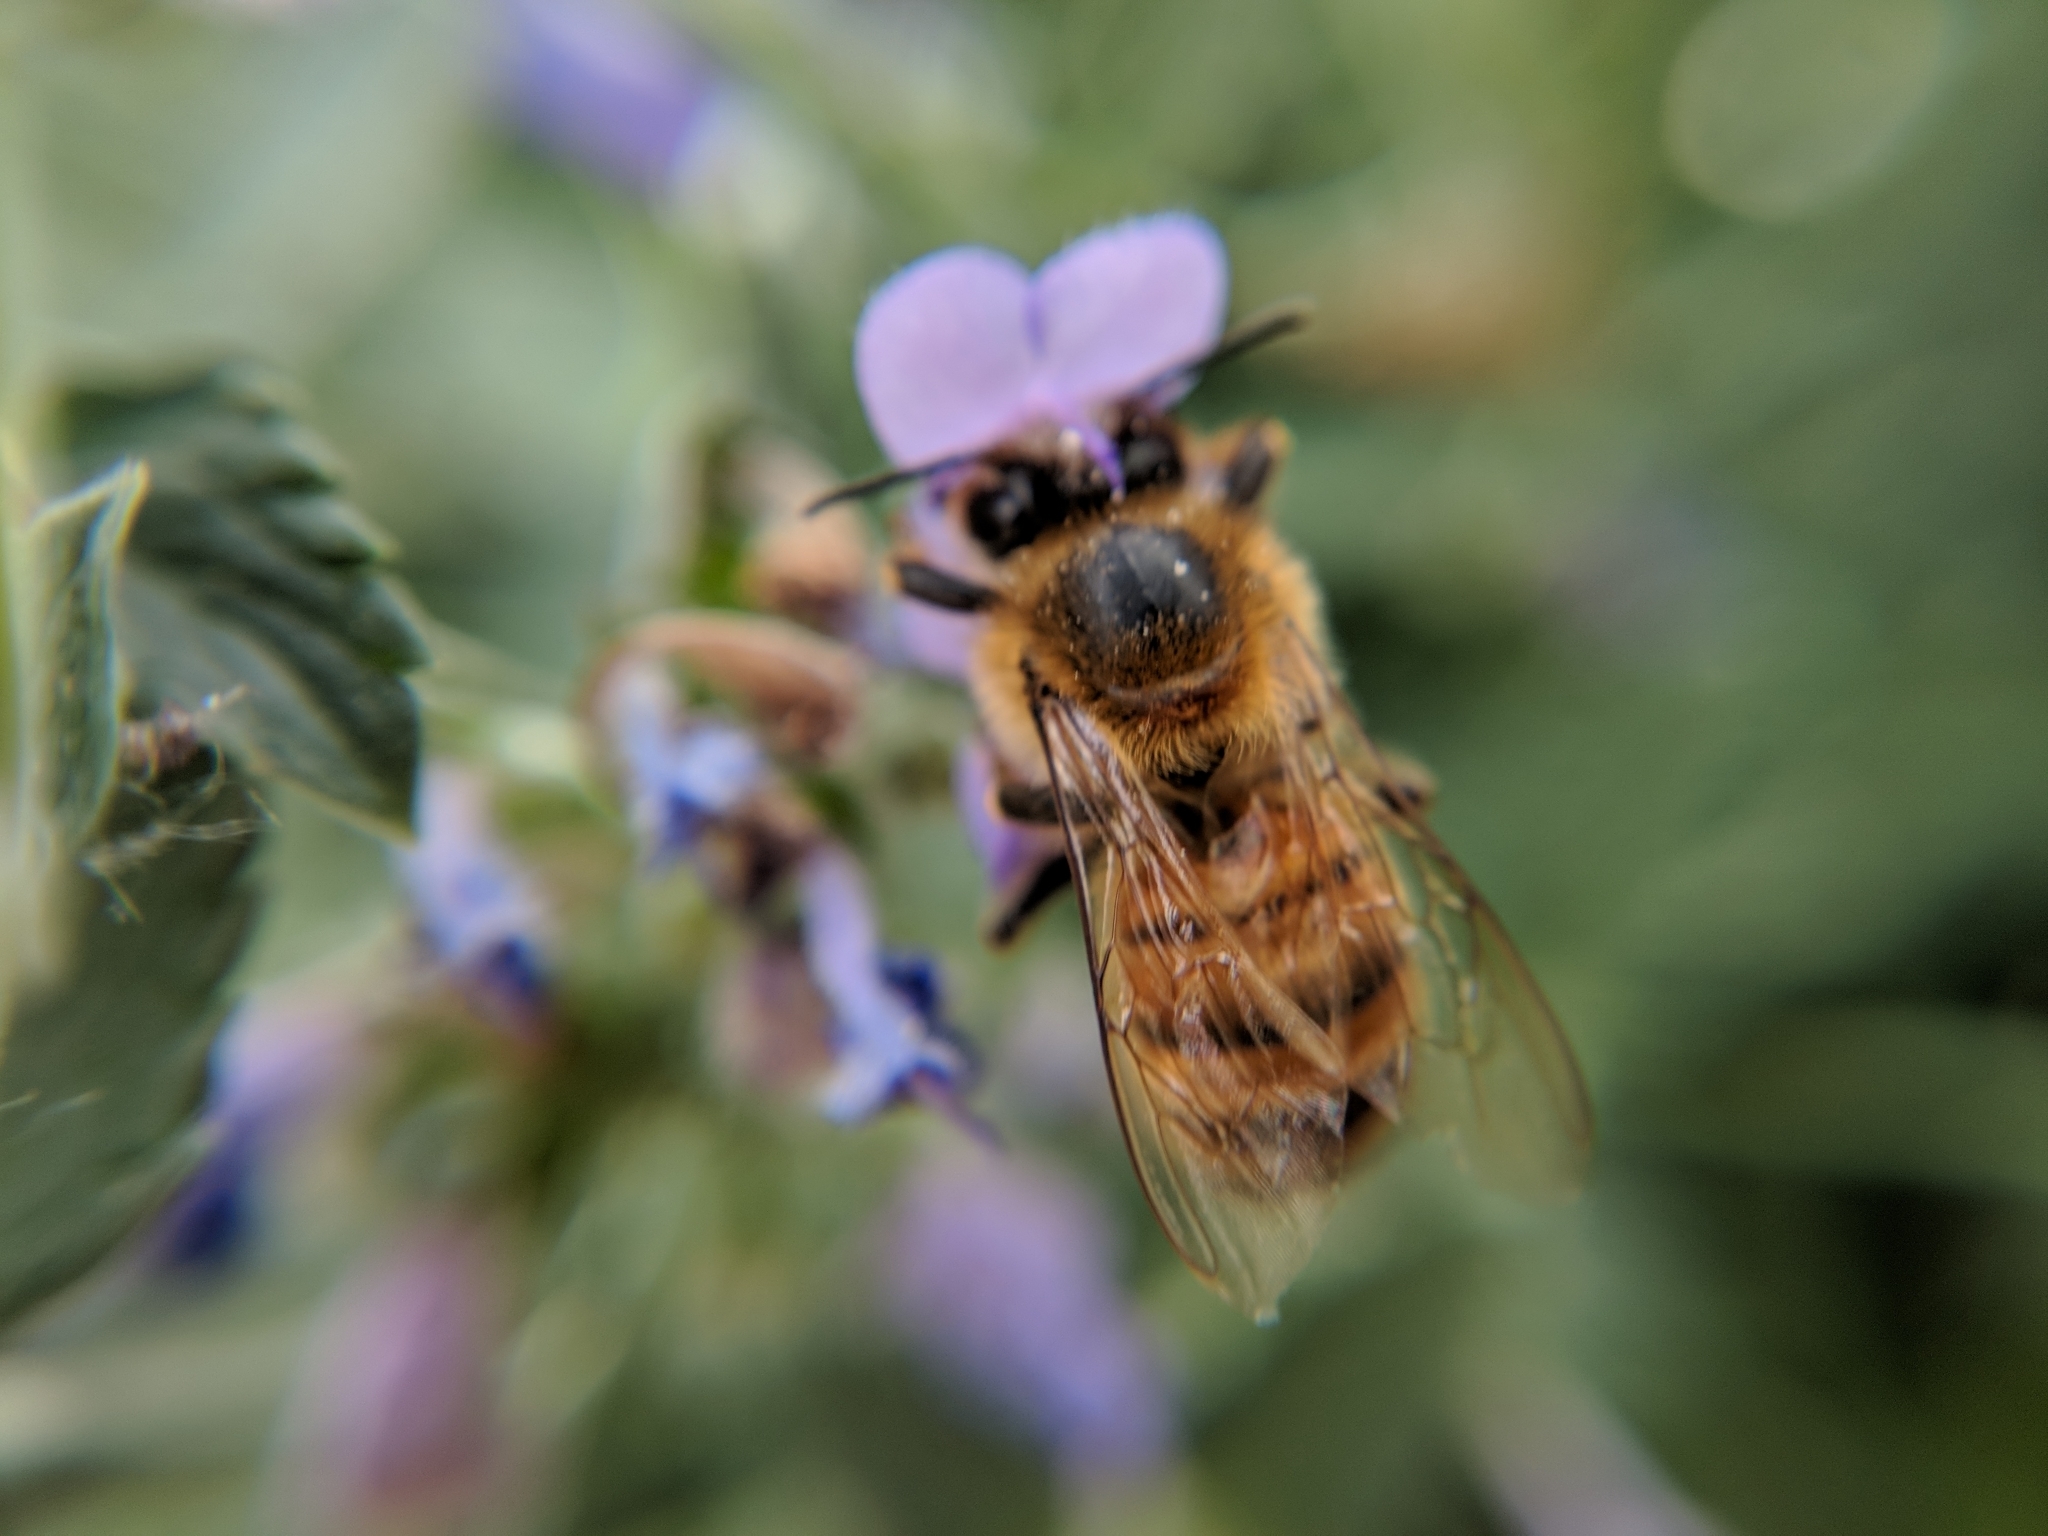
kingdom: Animalia
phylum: Arthropoda
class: Insecta
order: Hymenoptera
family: Apidae
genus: Apis
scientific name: Apis mellifera
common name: Honey bee
